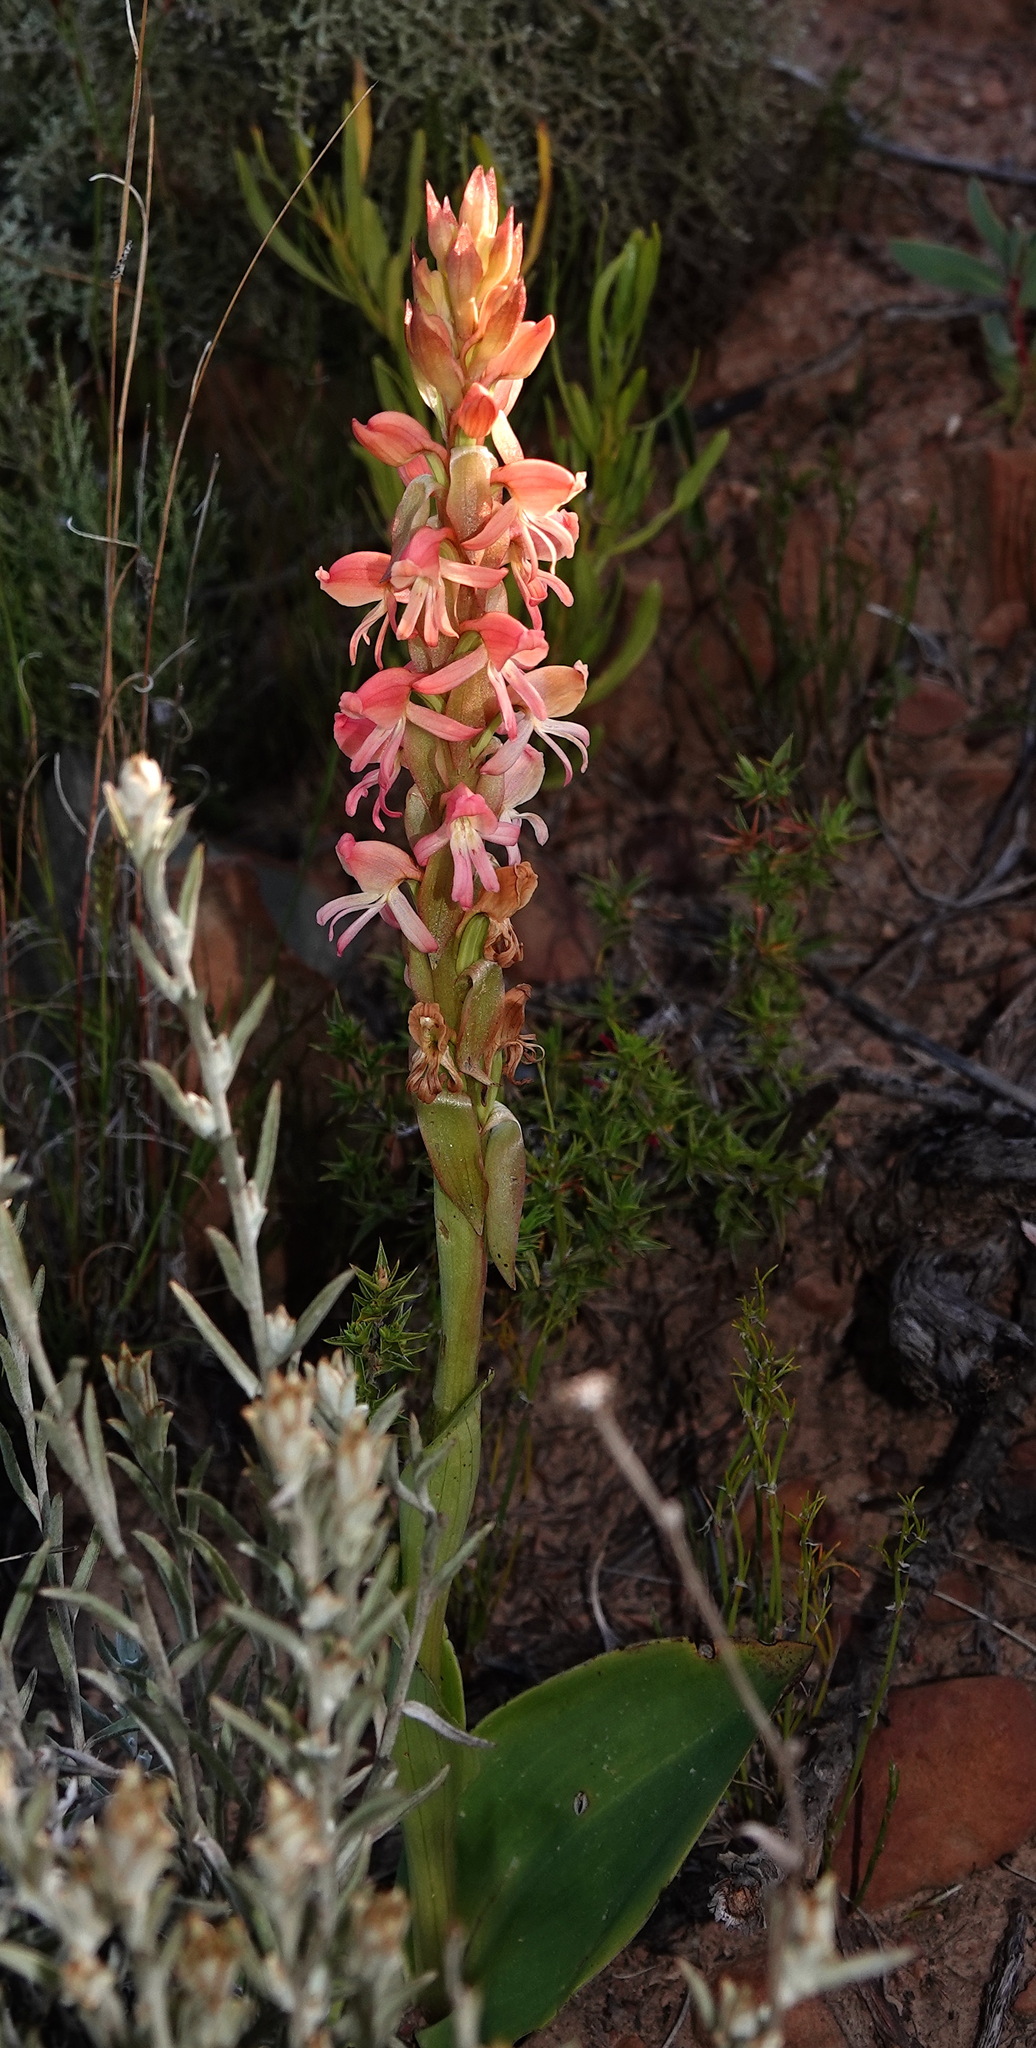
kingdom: Plantae
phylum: Tracheophyta
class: Liliopsida
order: Asparagales
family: Orchidaceae
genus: Satyrium
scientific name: Satyrium
